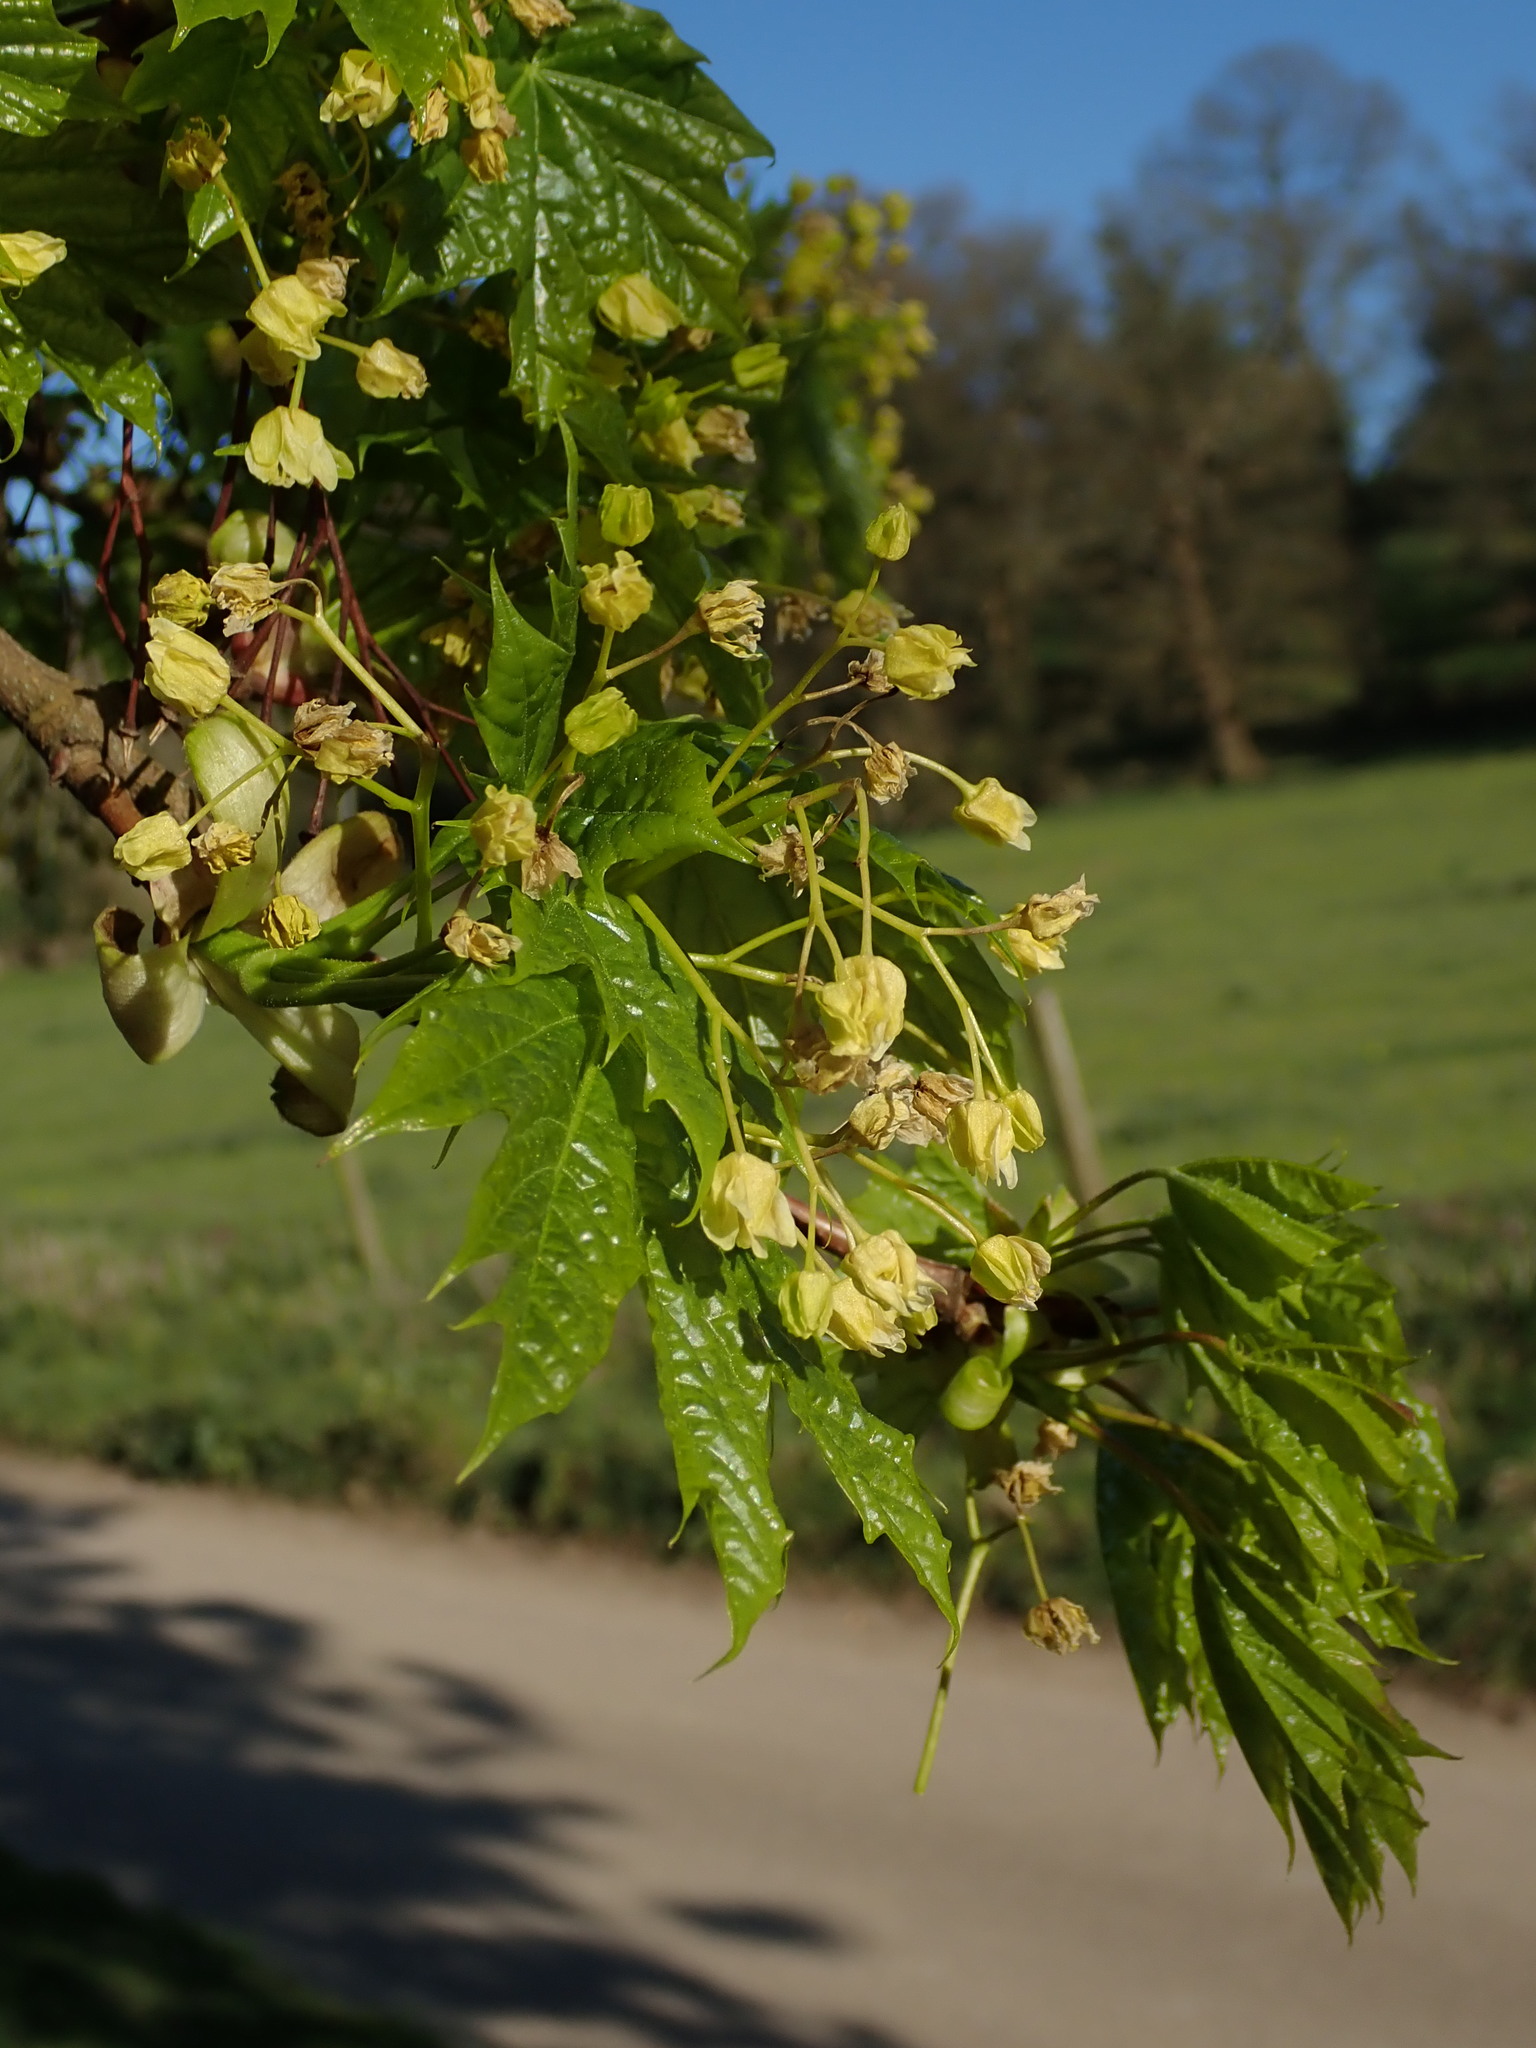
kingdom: Plantae
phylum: Tracheophyta
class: Magnoliopsida
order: Sapindales
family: Sapindaceae
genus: Acer
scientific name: Acer platanoides
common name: Norway maple
